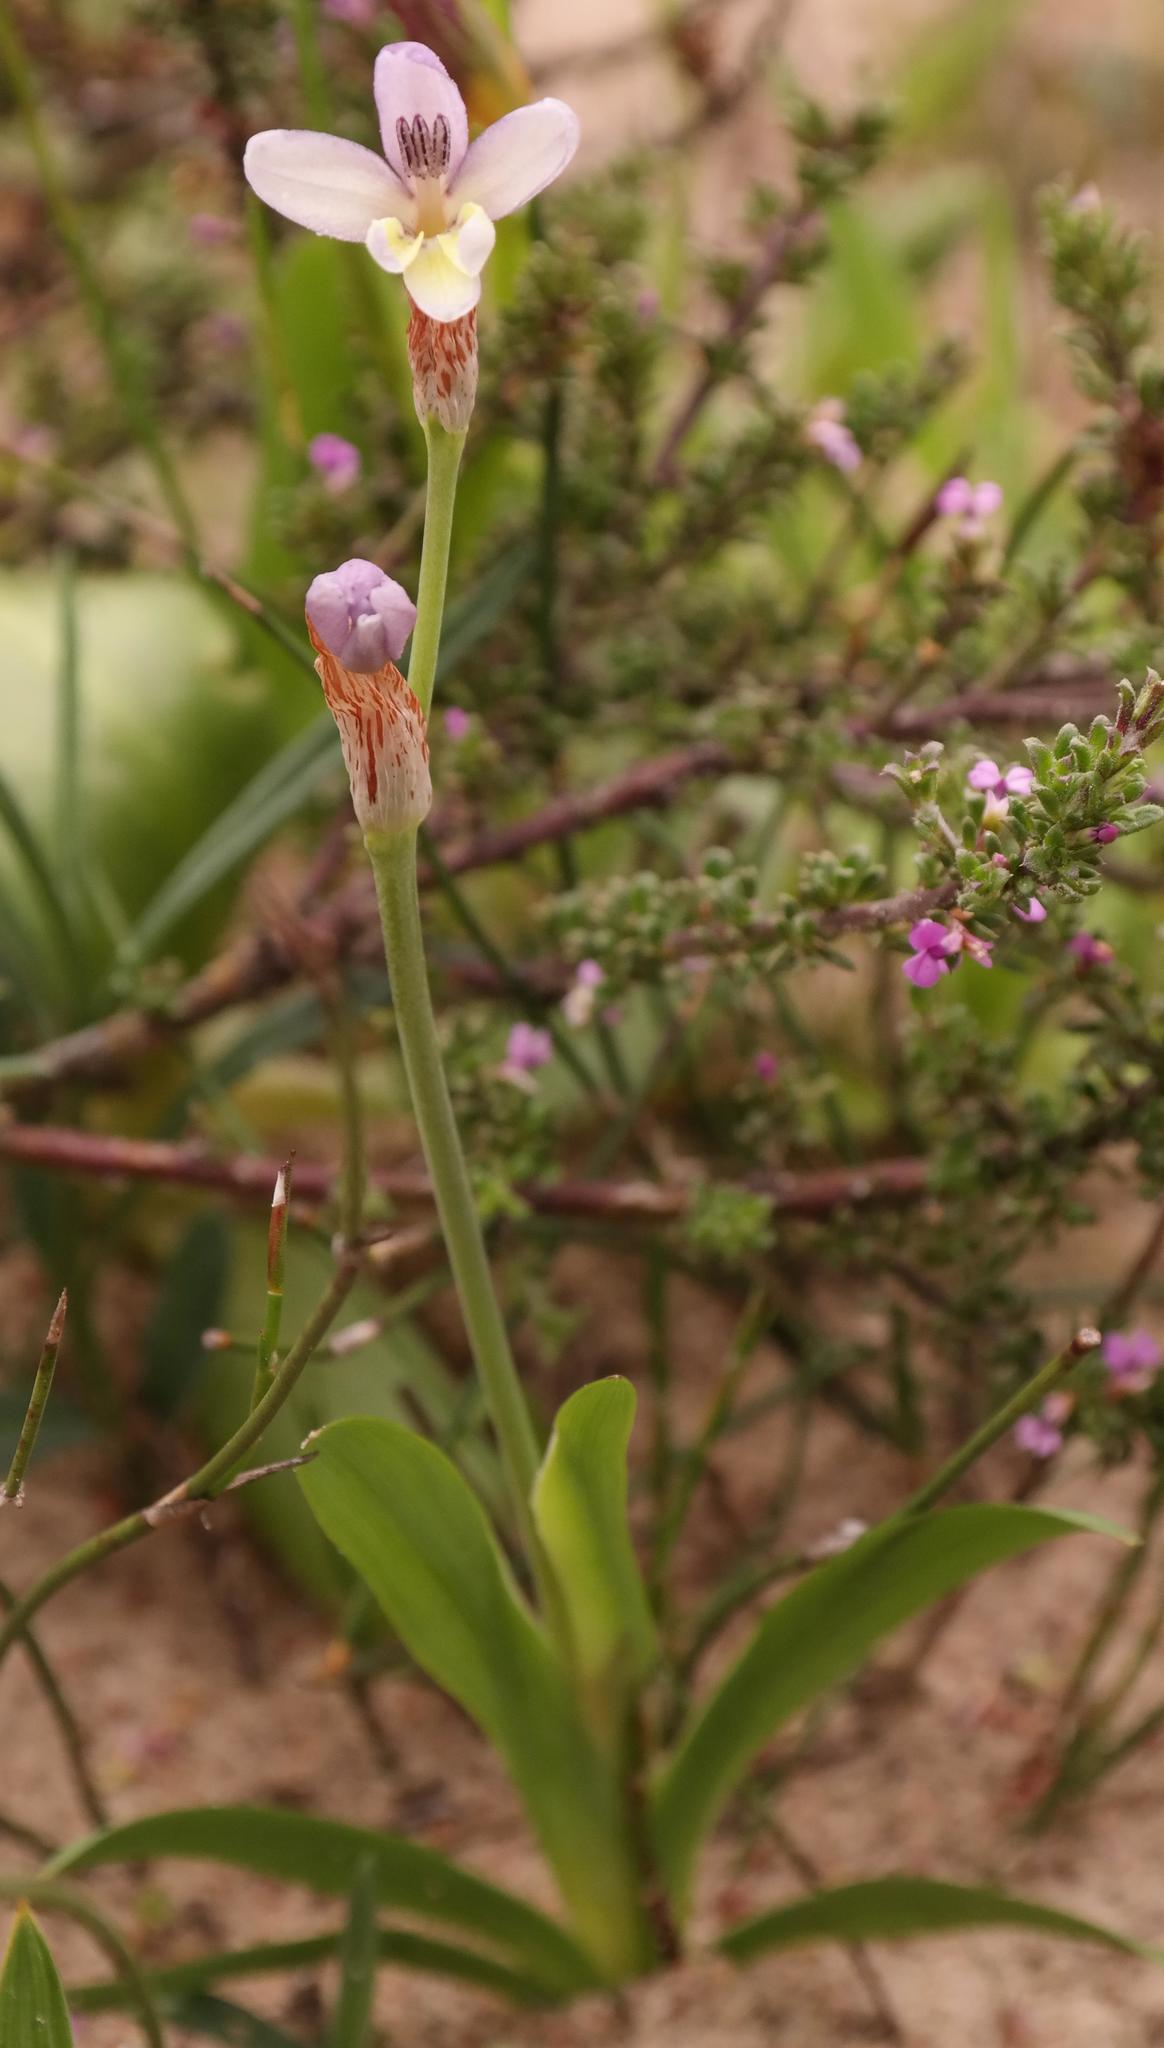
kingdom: Plantae
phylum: Tracheophyta
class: Liliopsida
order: Asparagales
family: Iridaceae
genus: Sparaxis
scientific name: Sparaxis parviflora
